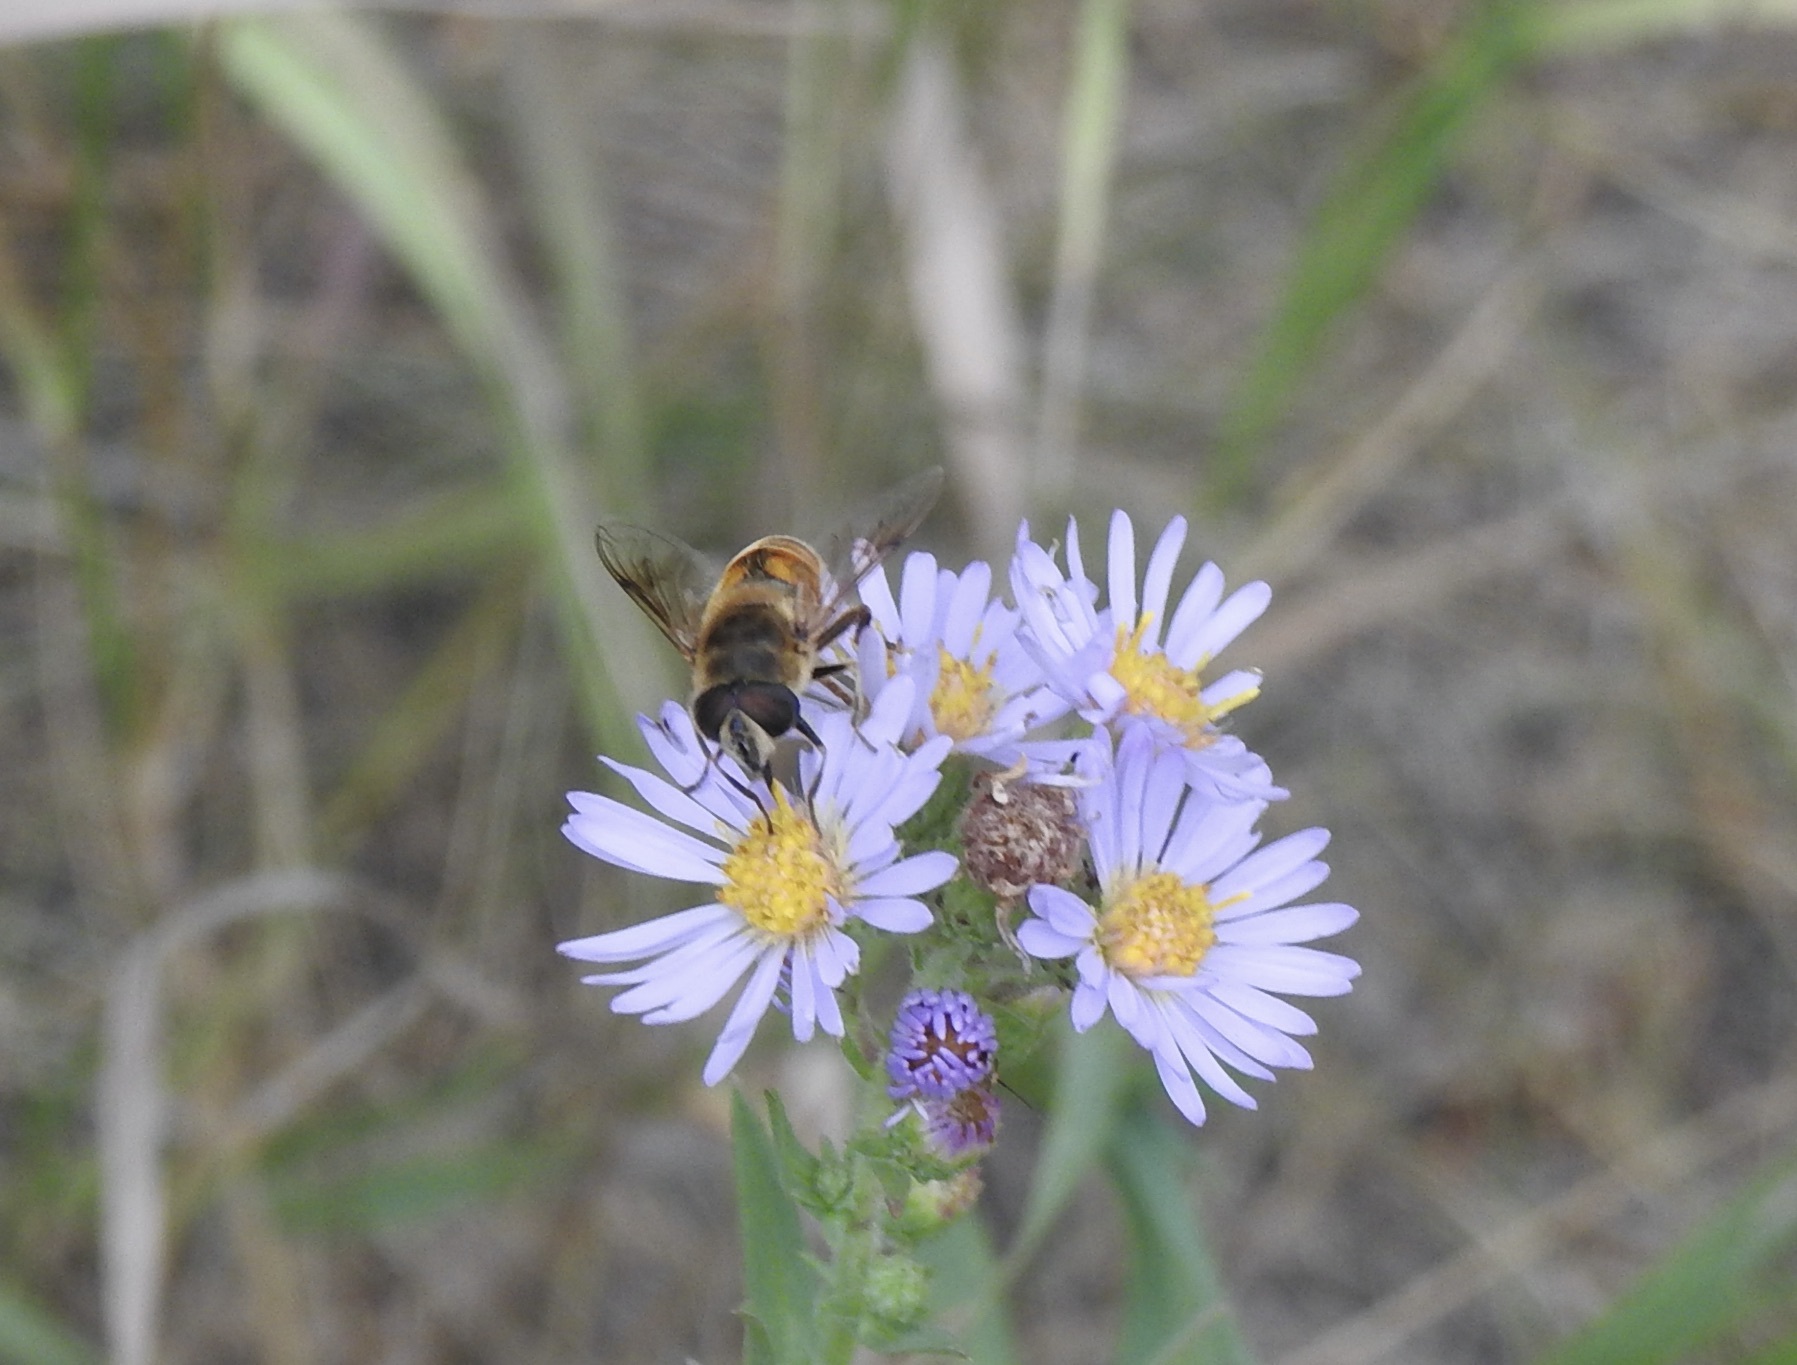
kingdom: Animalia
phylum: Arthropoda
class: Insecta
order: Diptera
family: Syrphidae
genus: Eristalis
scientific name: Eristalis tenax
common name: Drone fly
